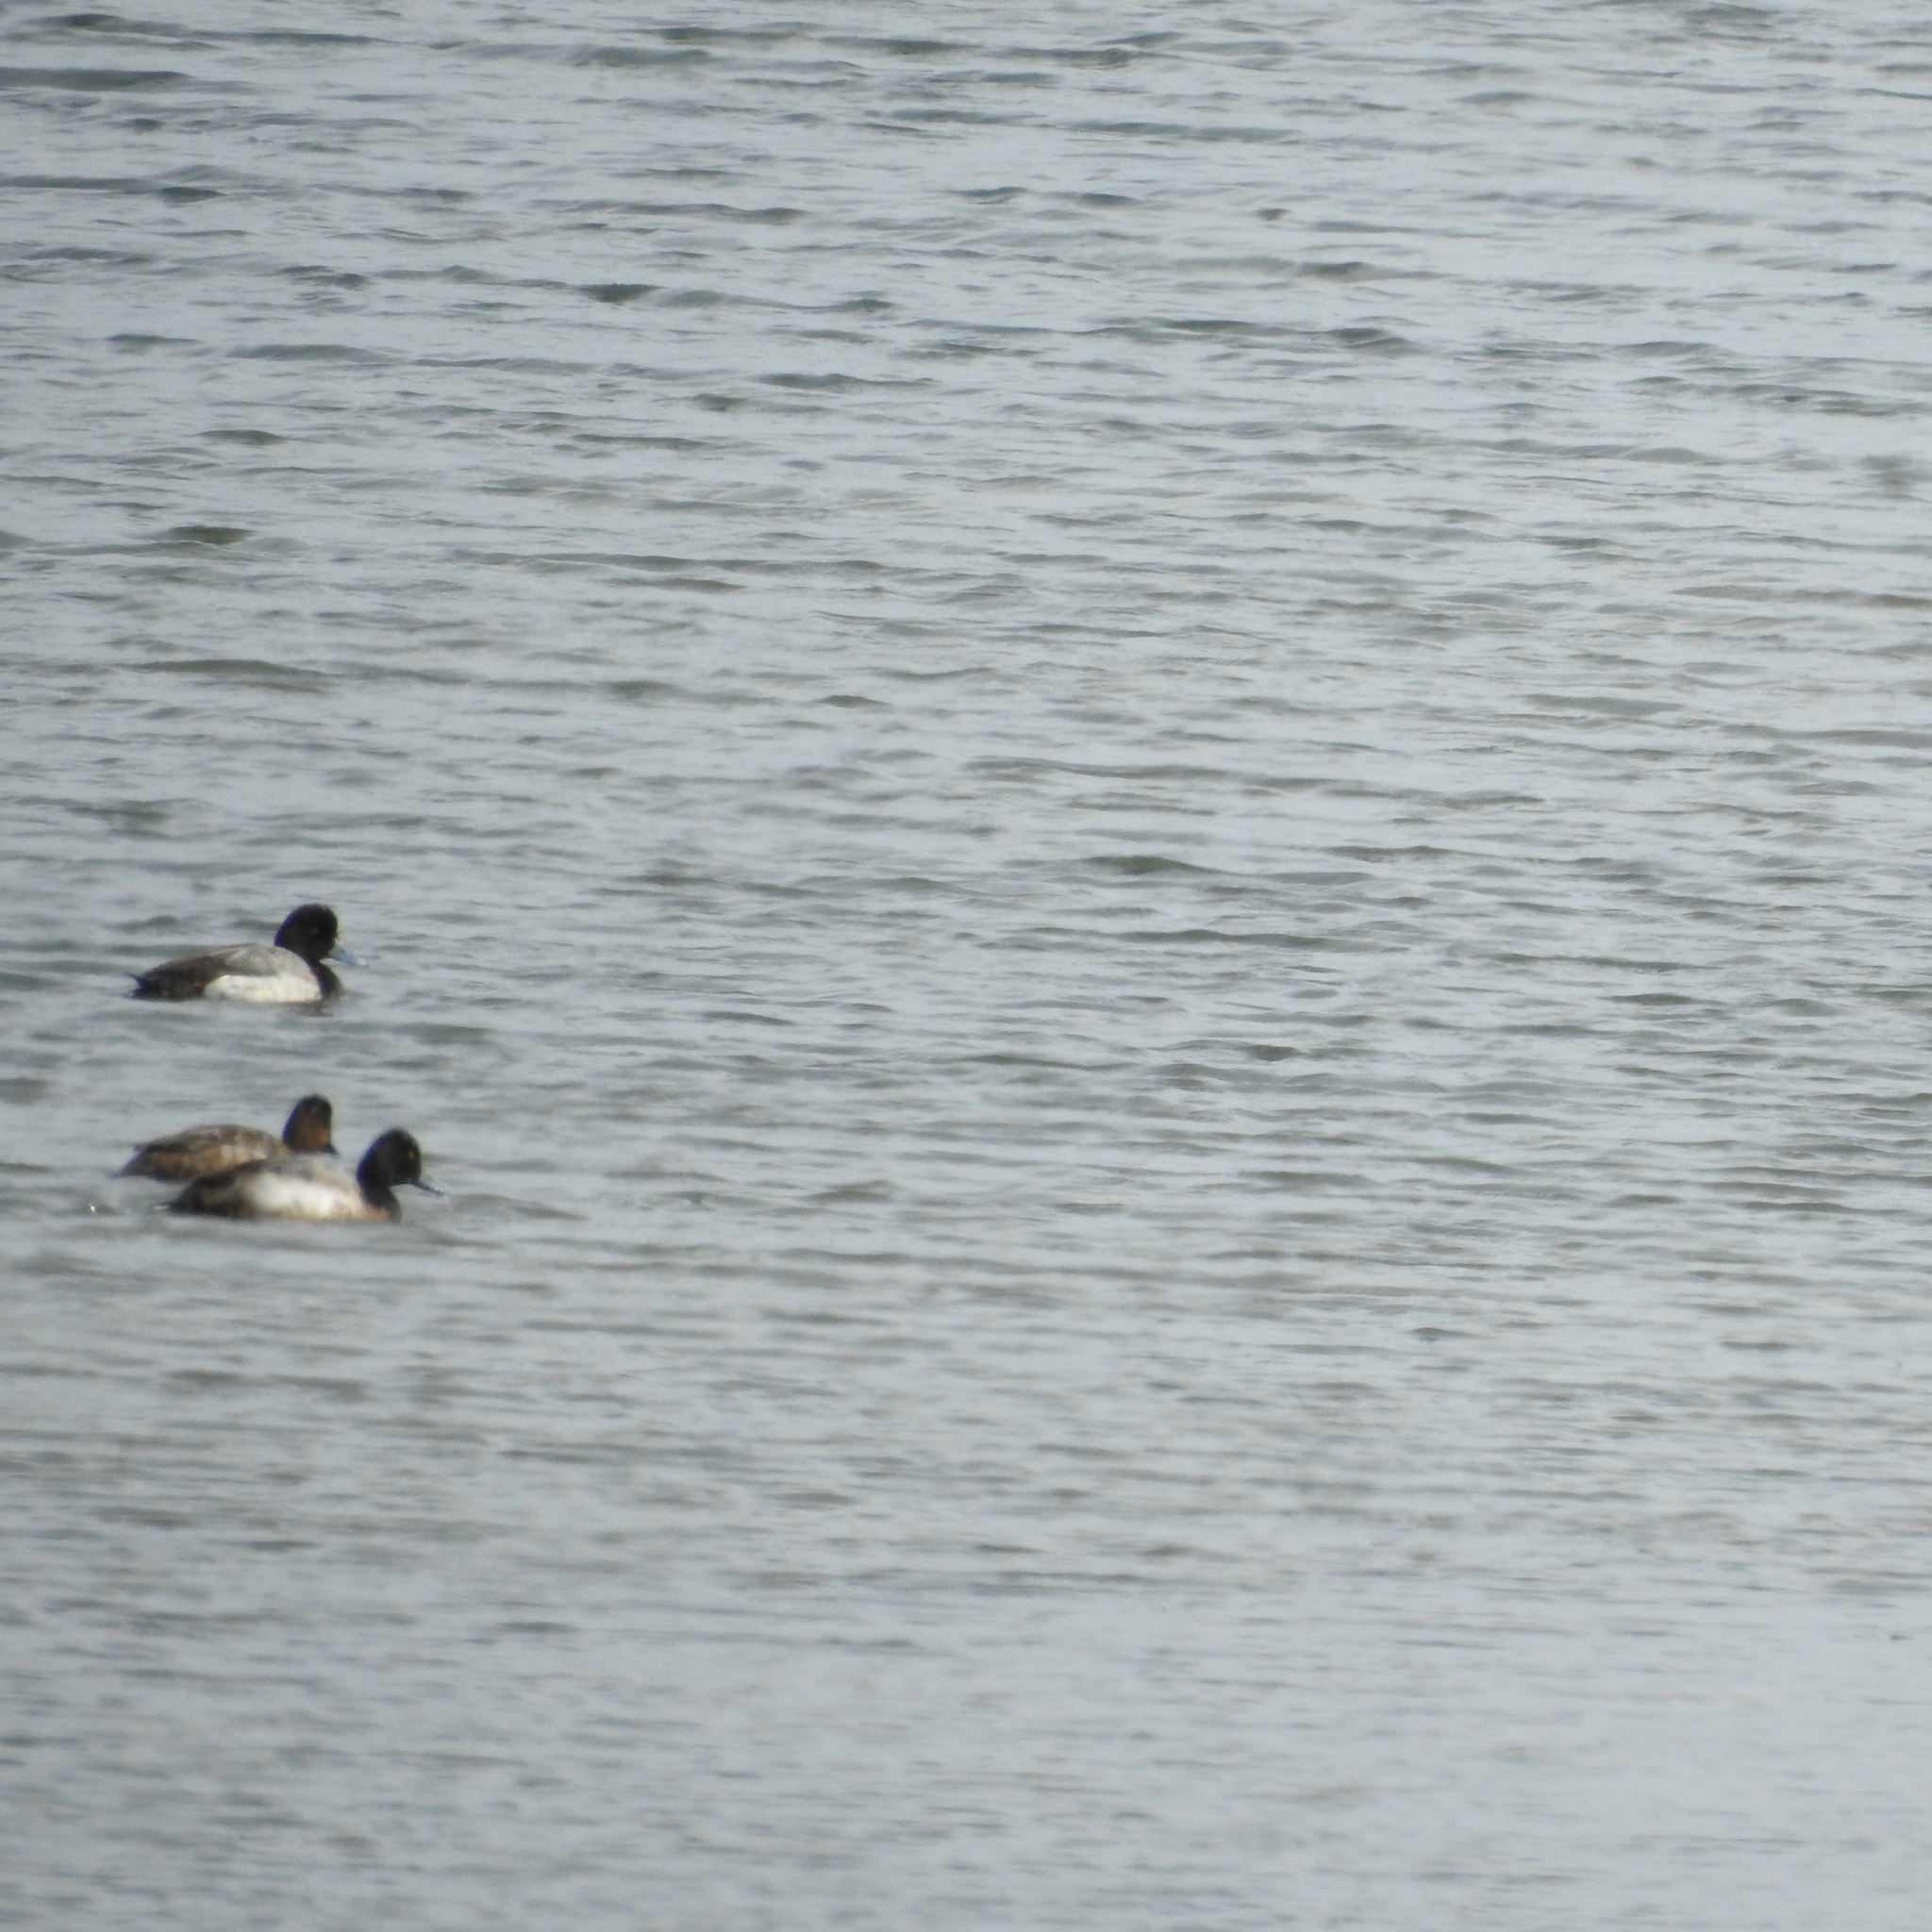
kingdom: Animalia
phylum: Chordata
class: Aves
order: Anseriformes
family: Anatidae
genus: Aythya
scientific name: Aythya affinis
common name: Lesser scaup
